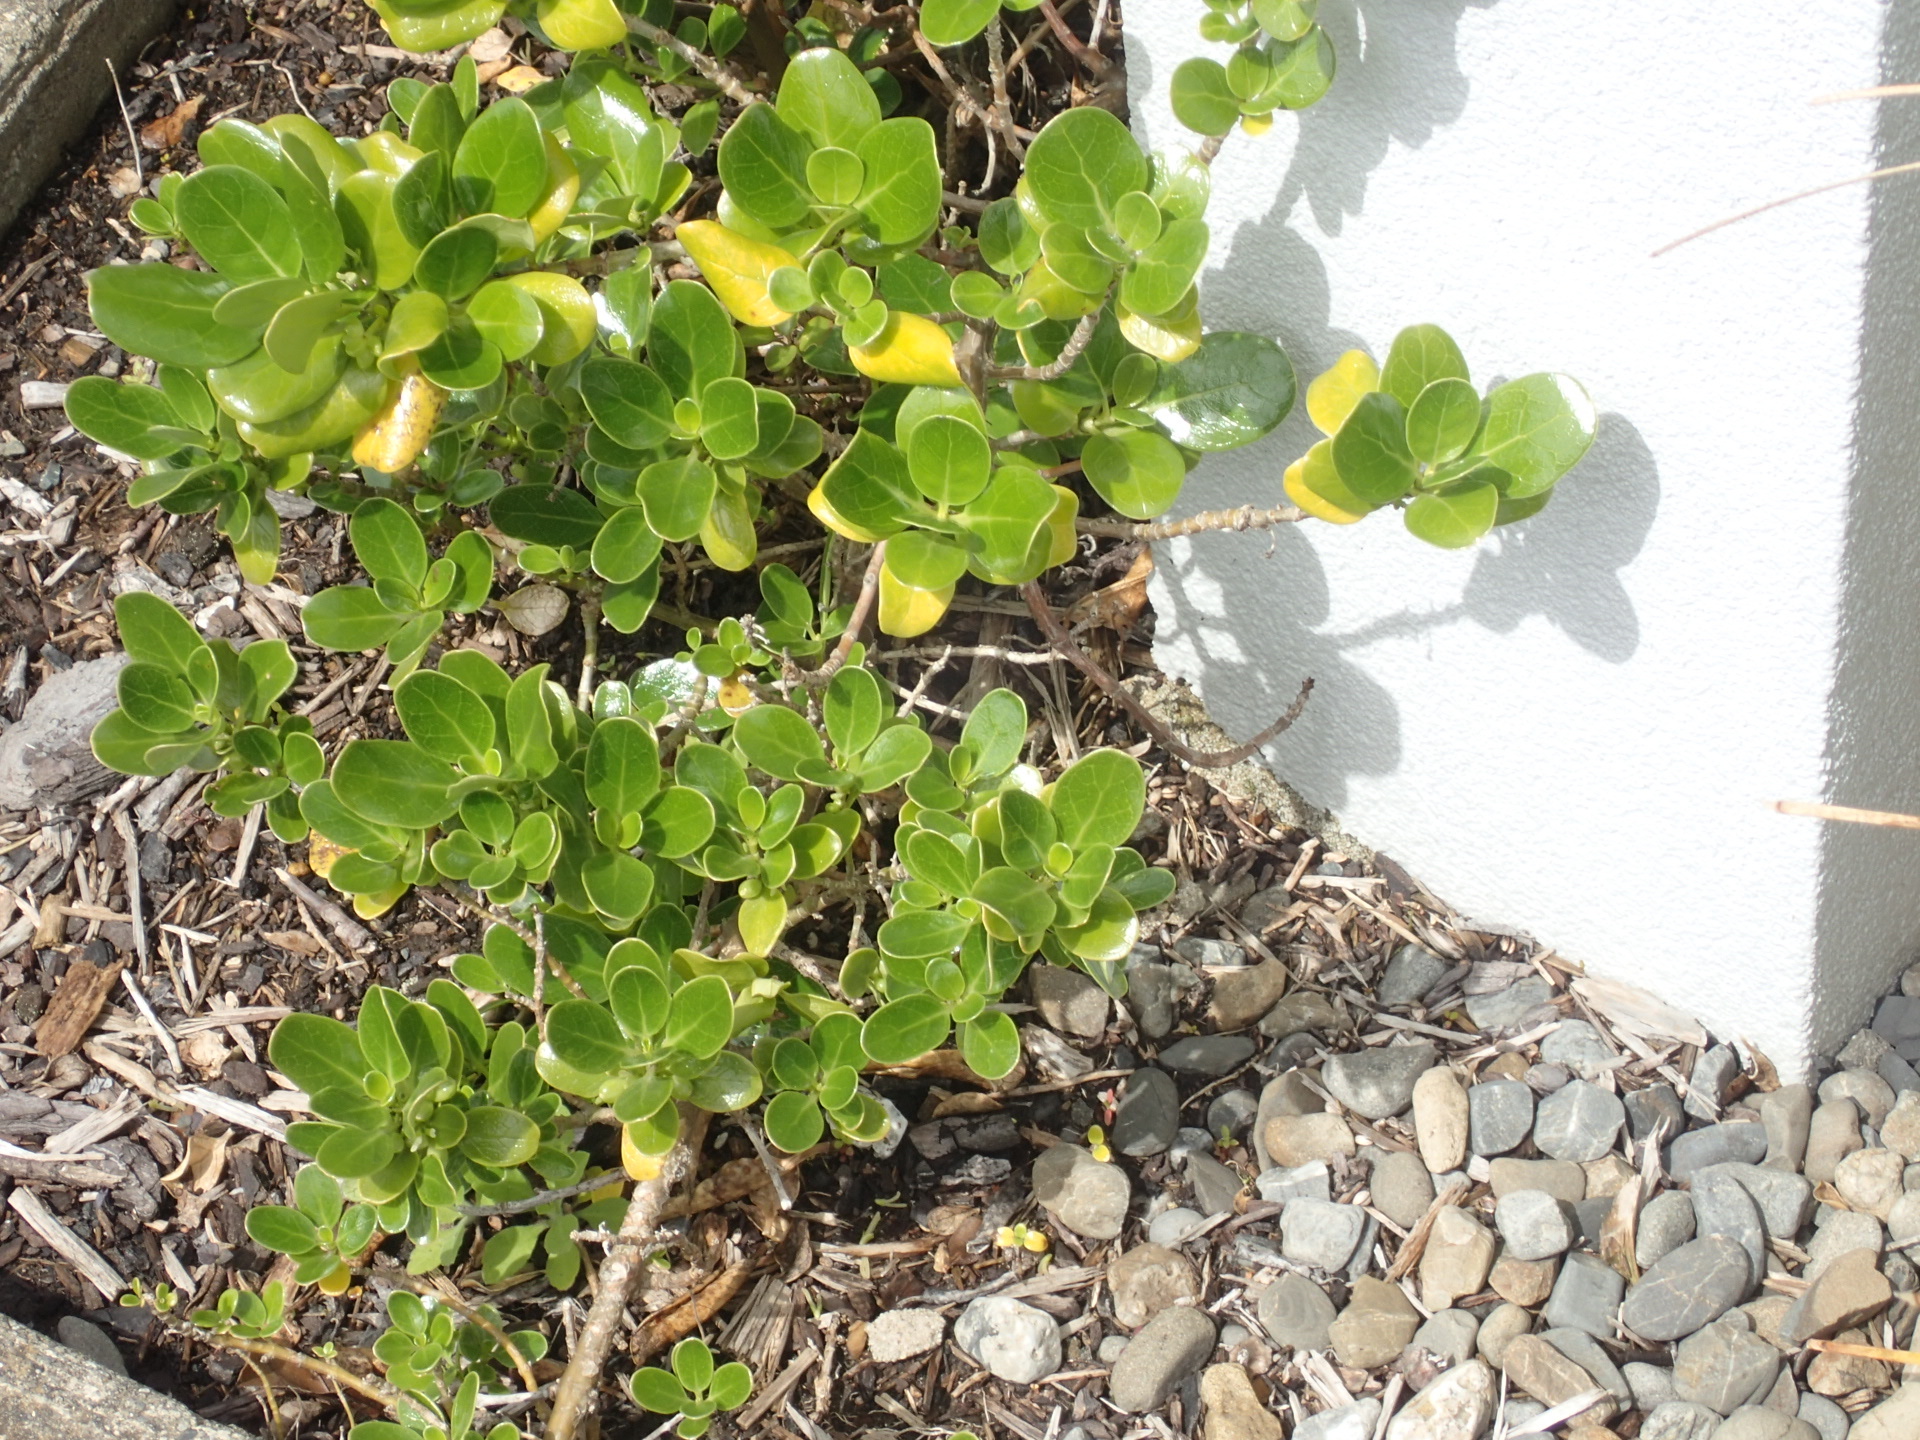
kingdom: Plantae
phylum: Tracheophyta
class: Magnoliopsida
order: Gentianales
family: Rubiaceae
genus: Coprosma
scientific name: Coprosma repens
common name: Tree bedstraw
